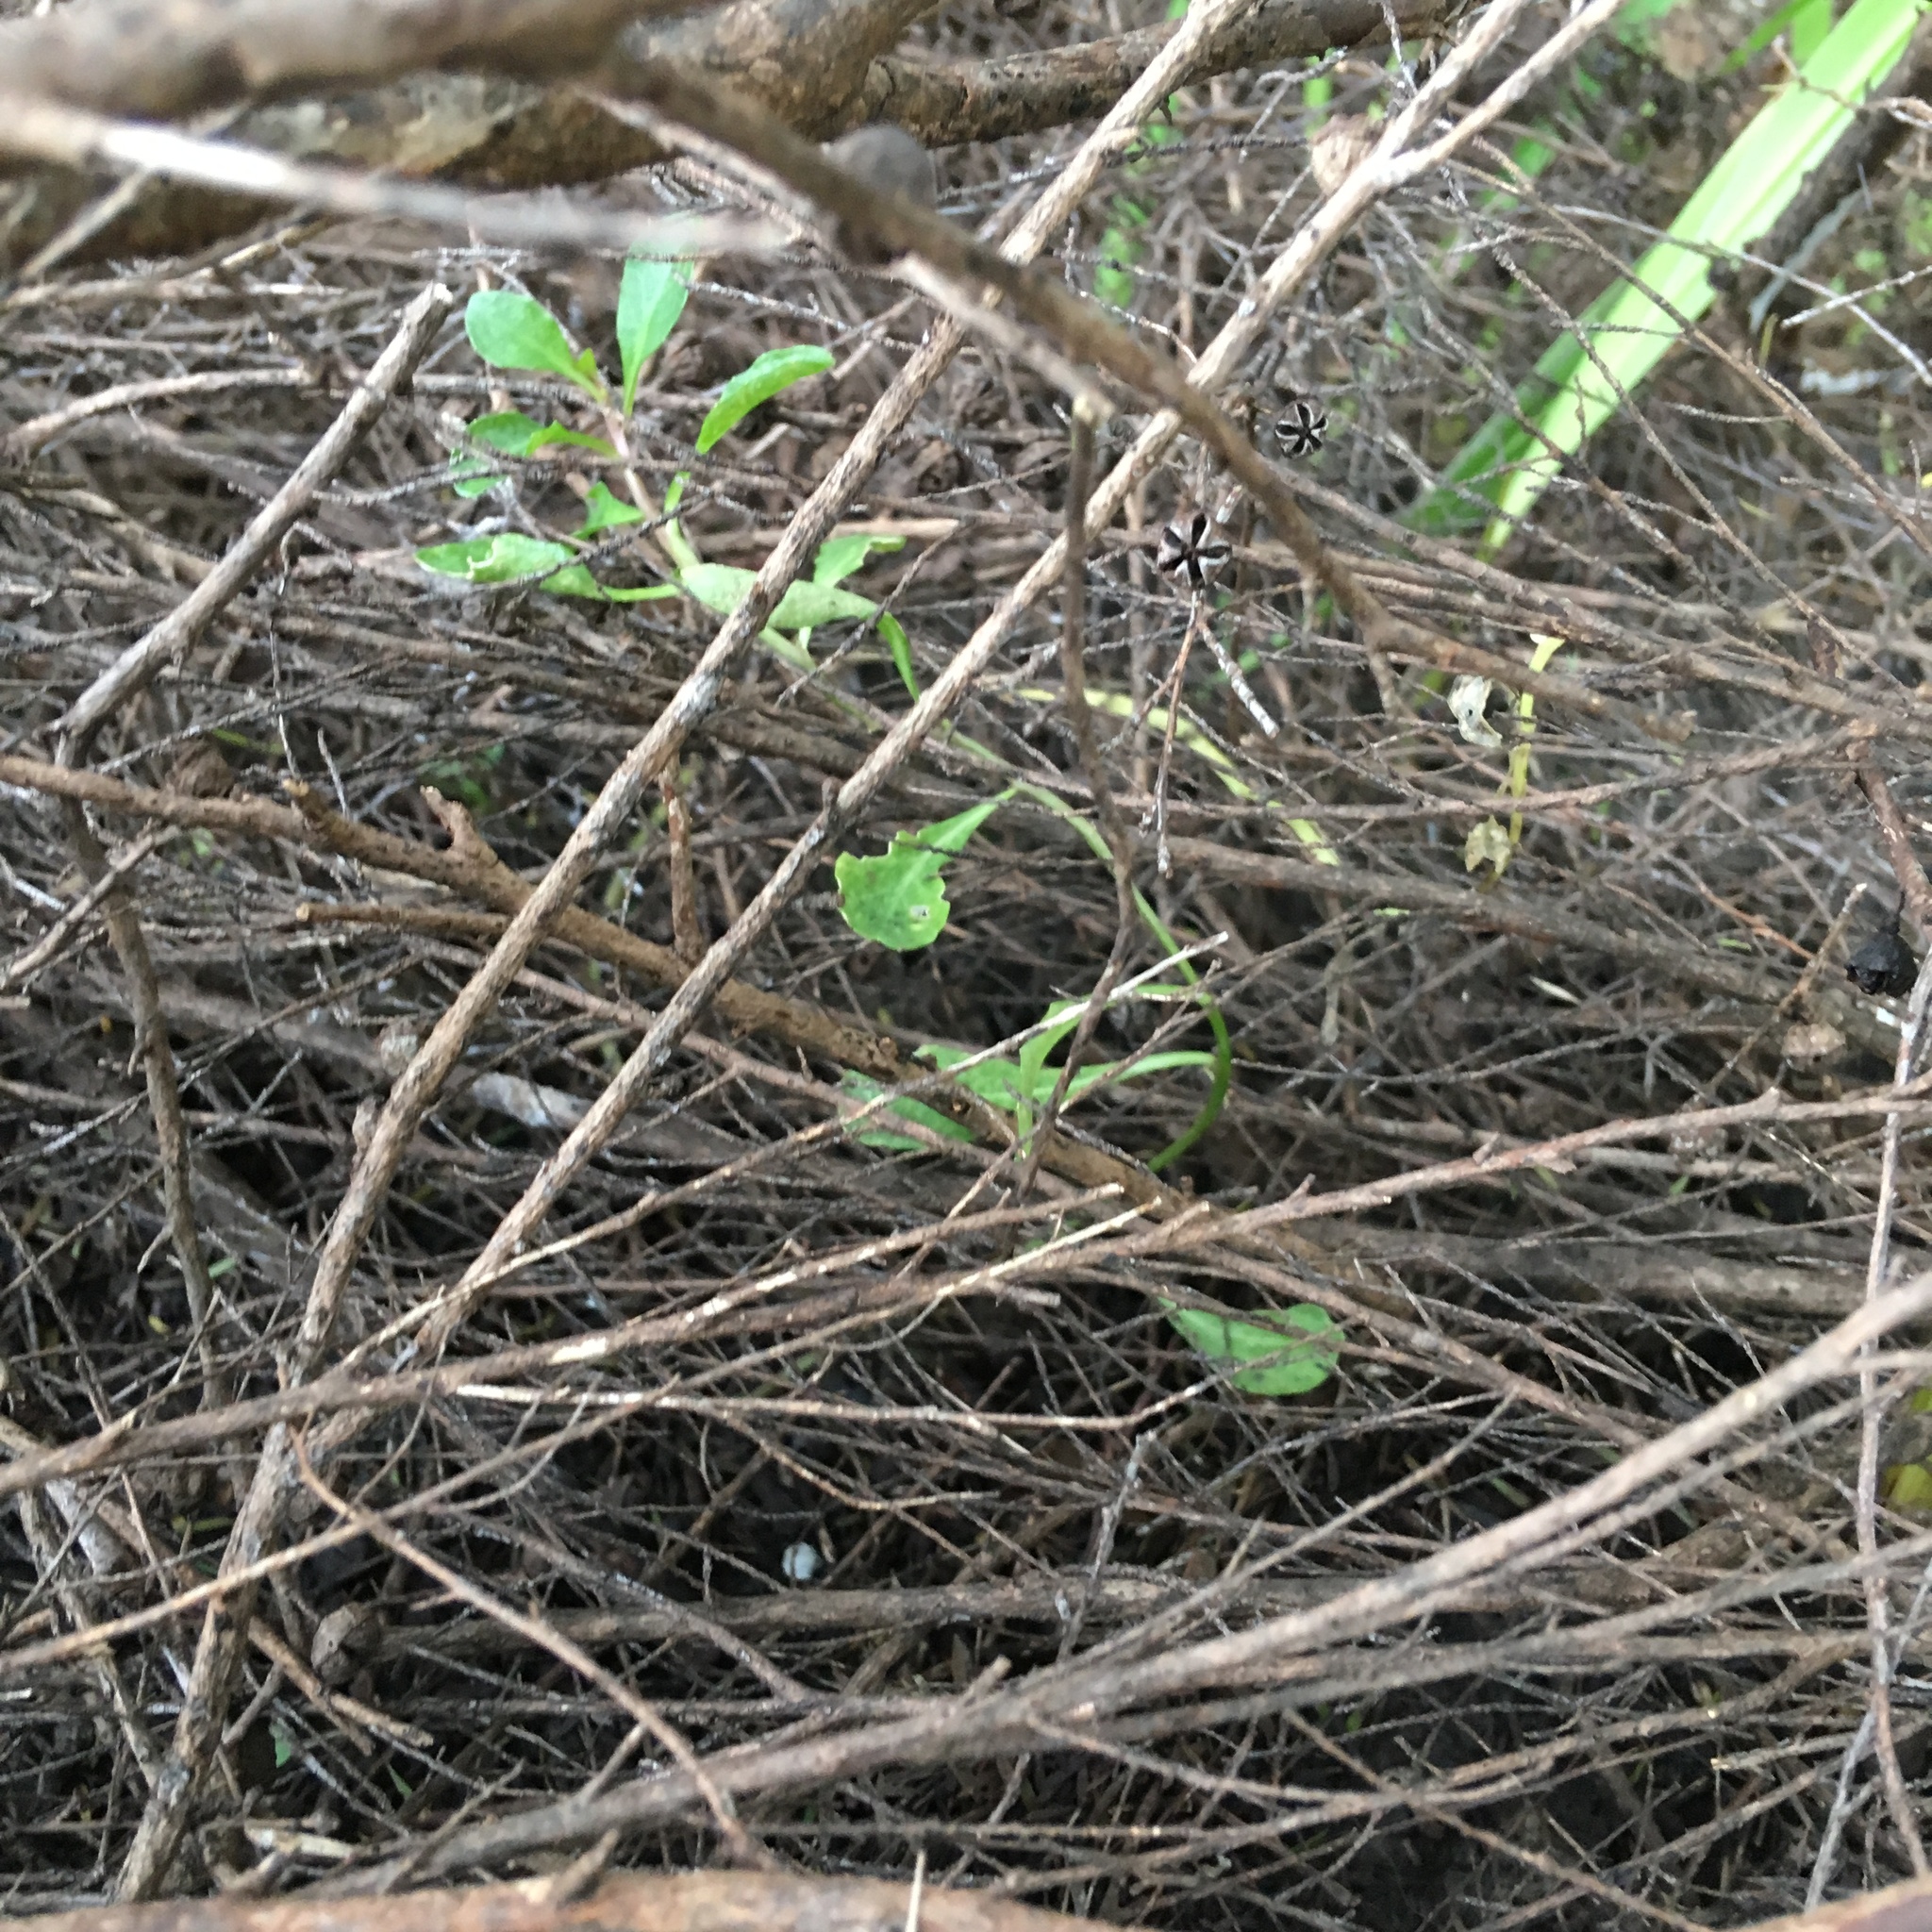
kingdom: Plantae
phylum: Tracheophyta
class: Magnoliopsida
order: Asterales
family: Campanulaceae
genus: Lobelia
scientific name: Lobelia anceps
